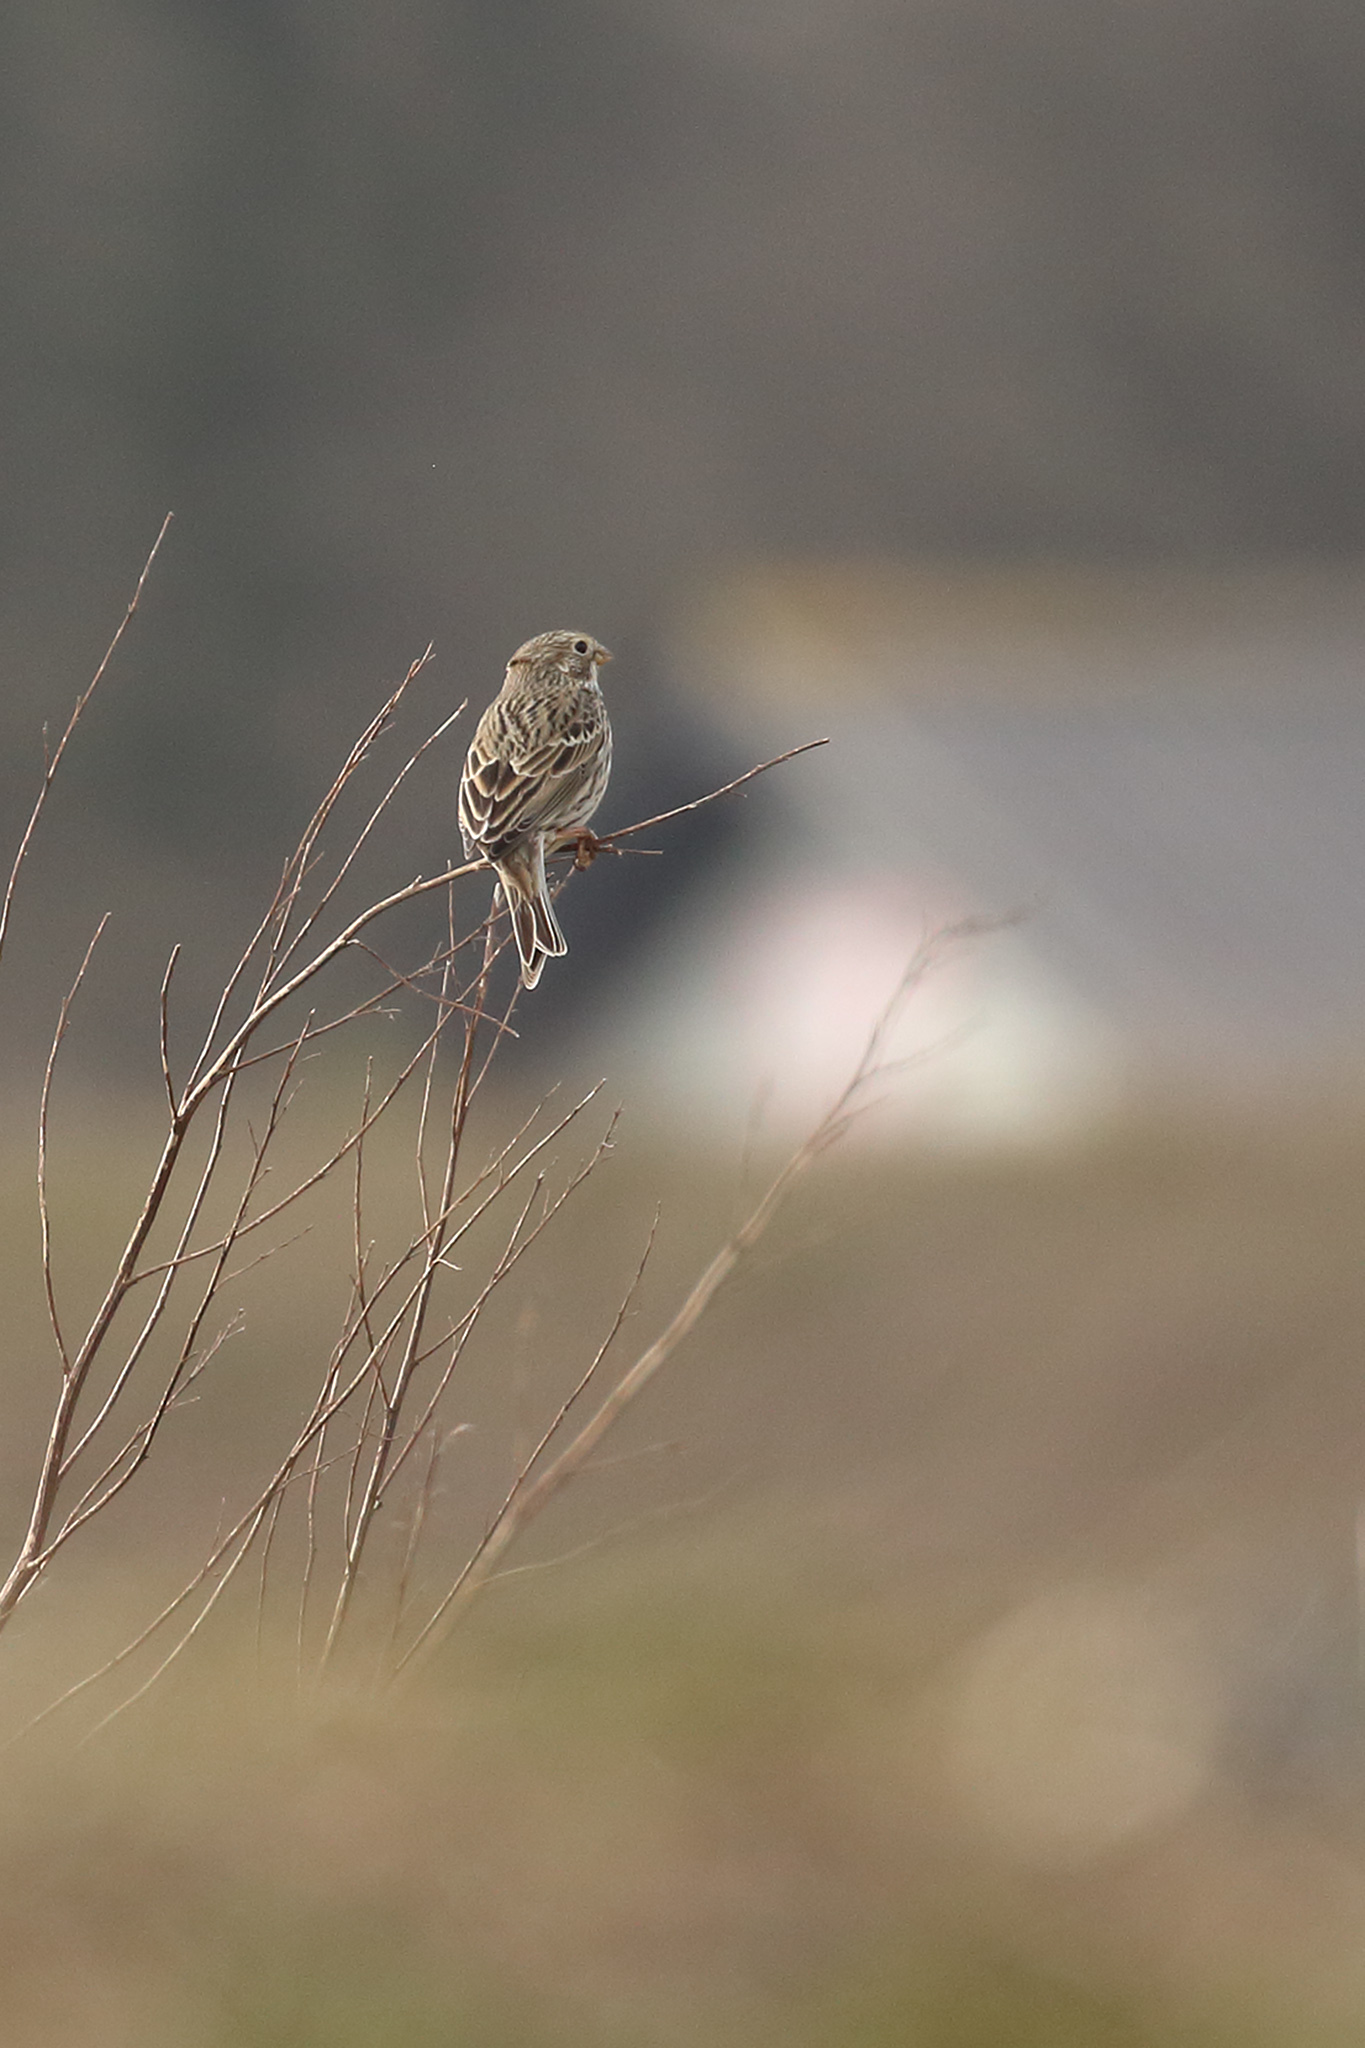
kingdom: Animalia
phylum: Chordata
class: Aves
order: Passeriformes
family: Emberizidae
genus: Emberiza
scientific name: Emberiza calandra
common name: Corn bunting
